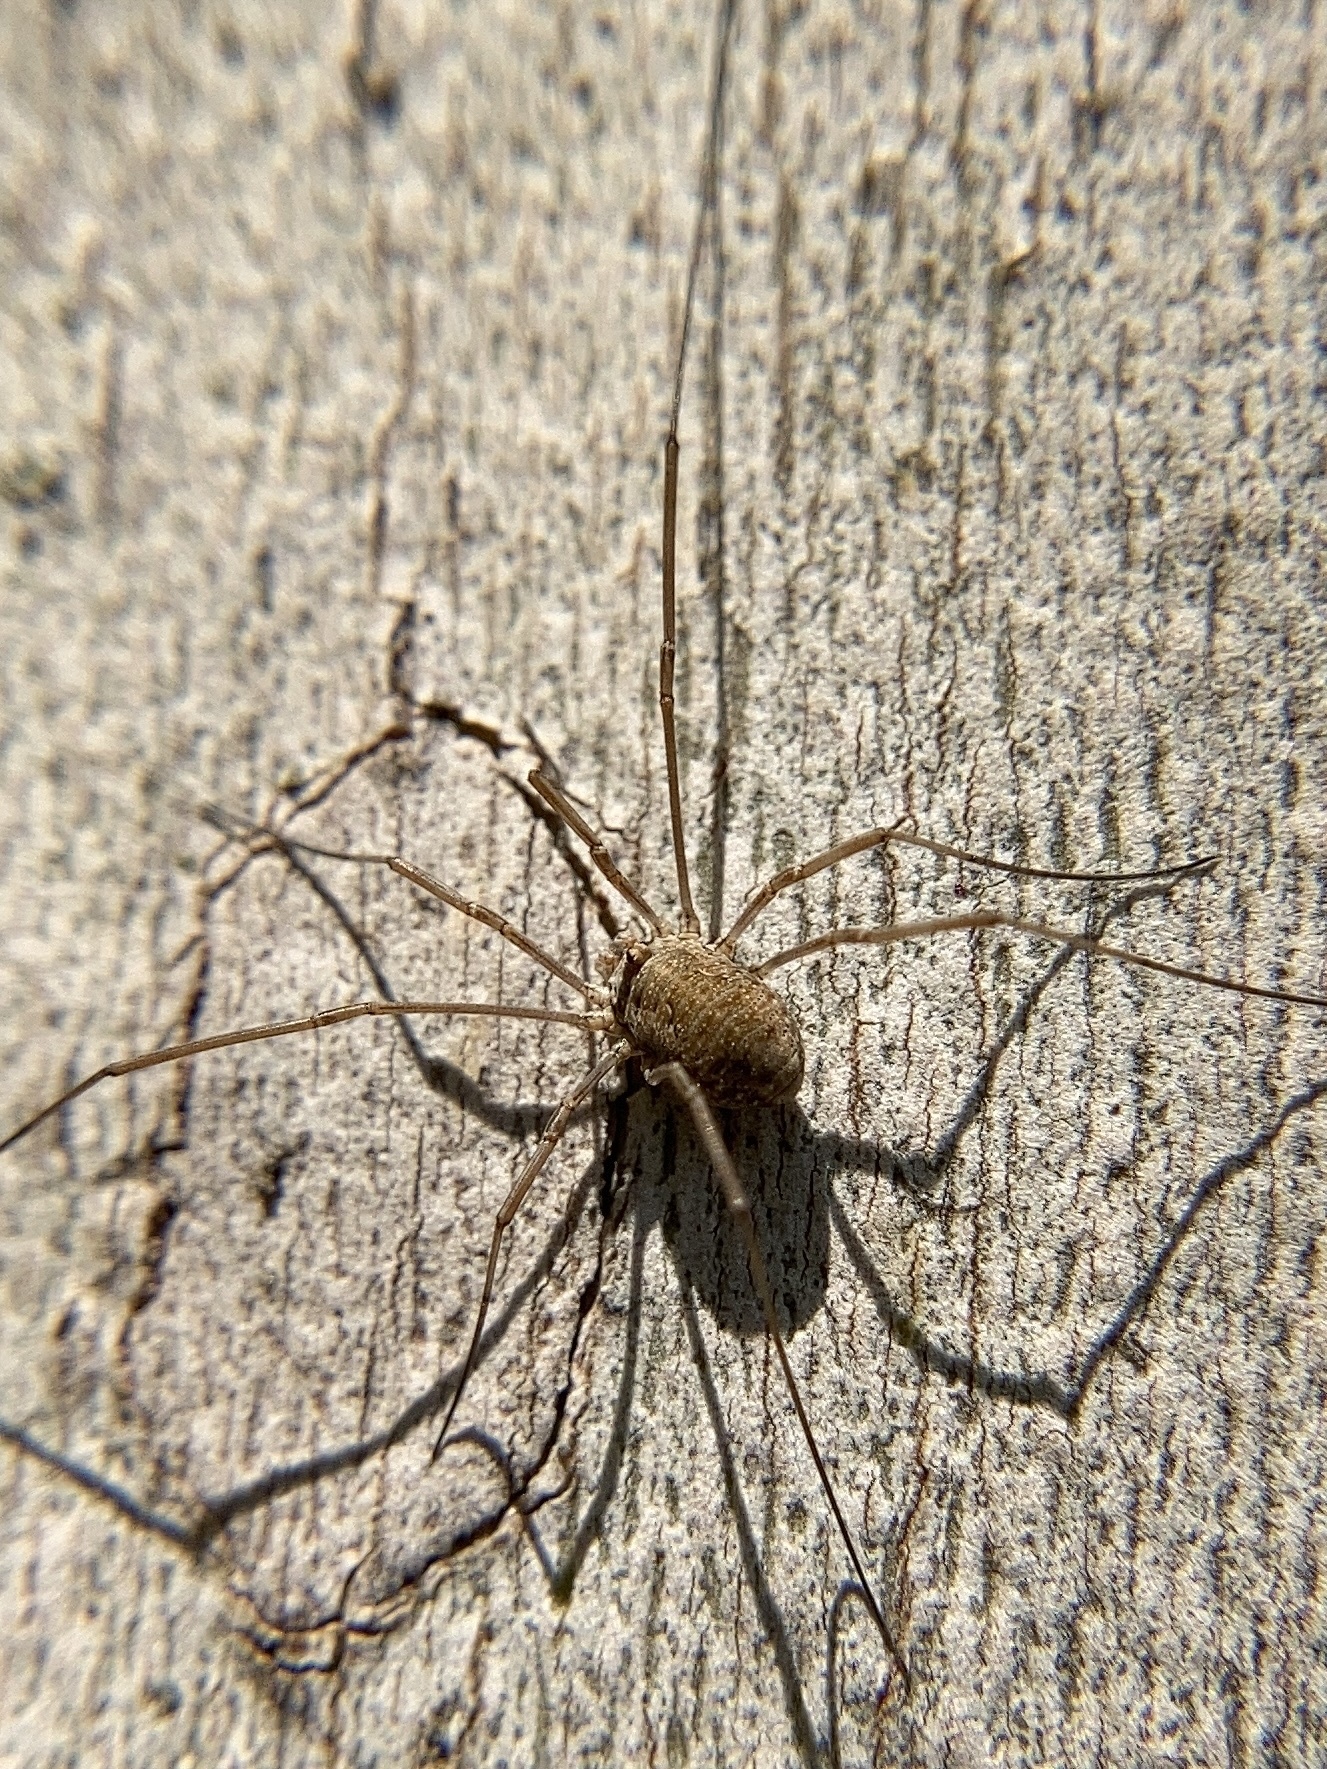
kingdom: Animalia
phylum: Arthropoda
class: Arachnida
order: Opiliones
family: Phalangiidae
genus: Phalangium
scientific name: Phalangium opilio
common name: Daddy longleg
